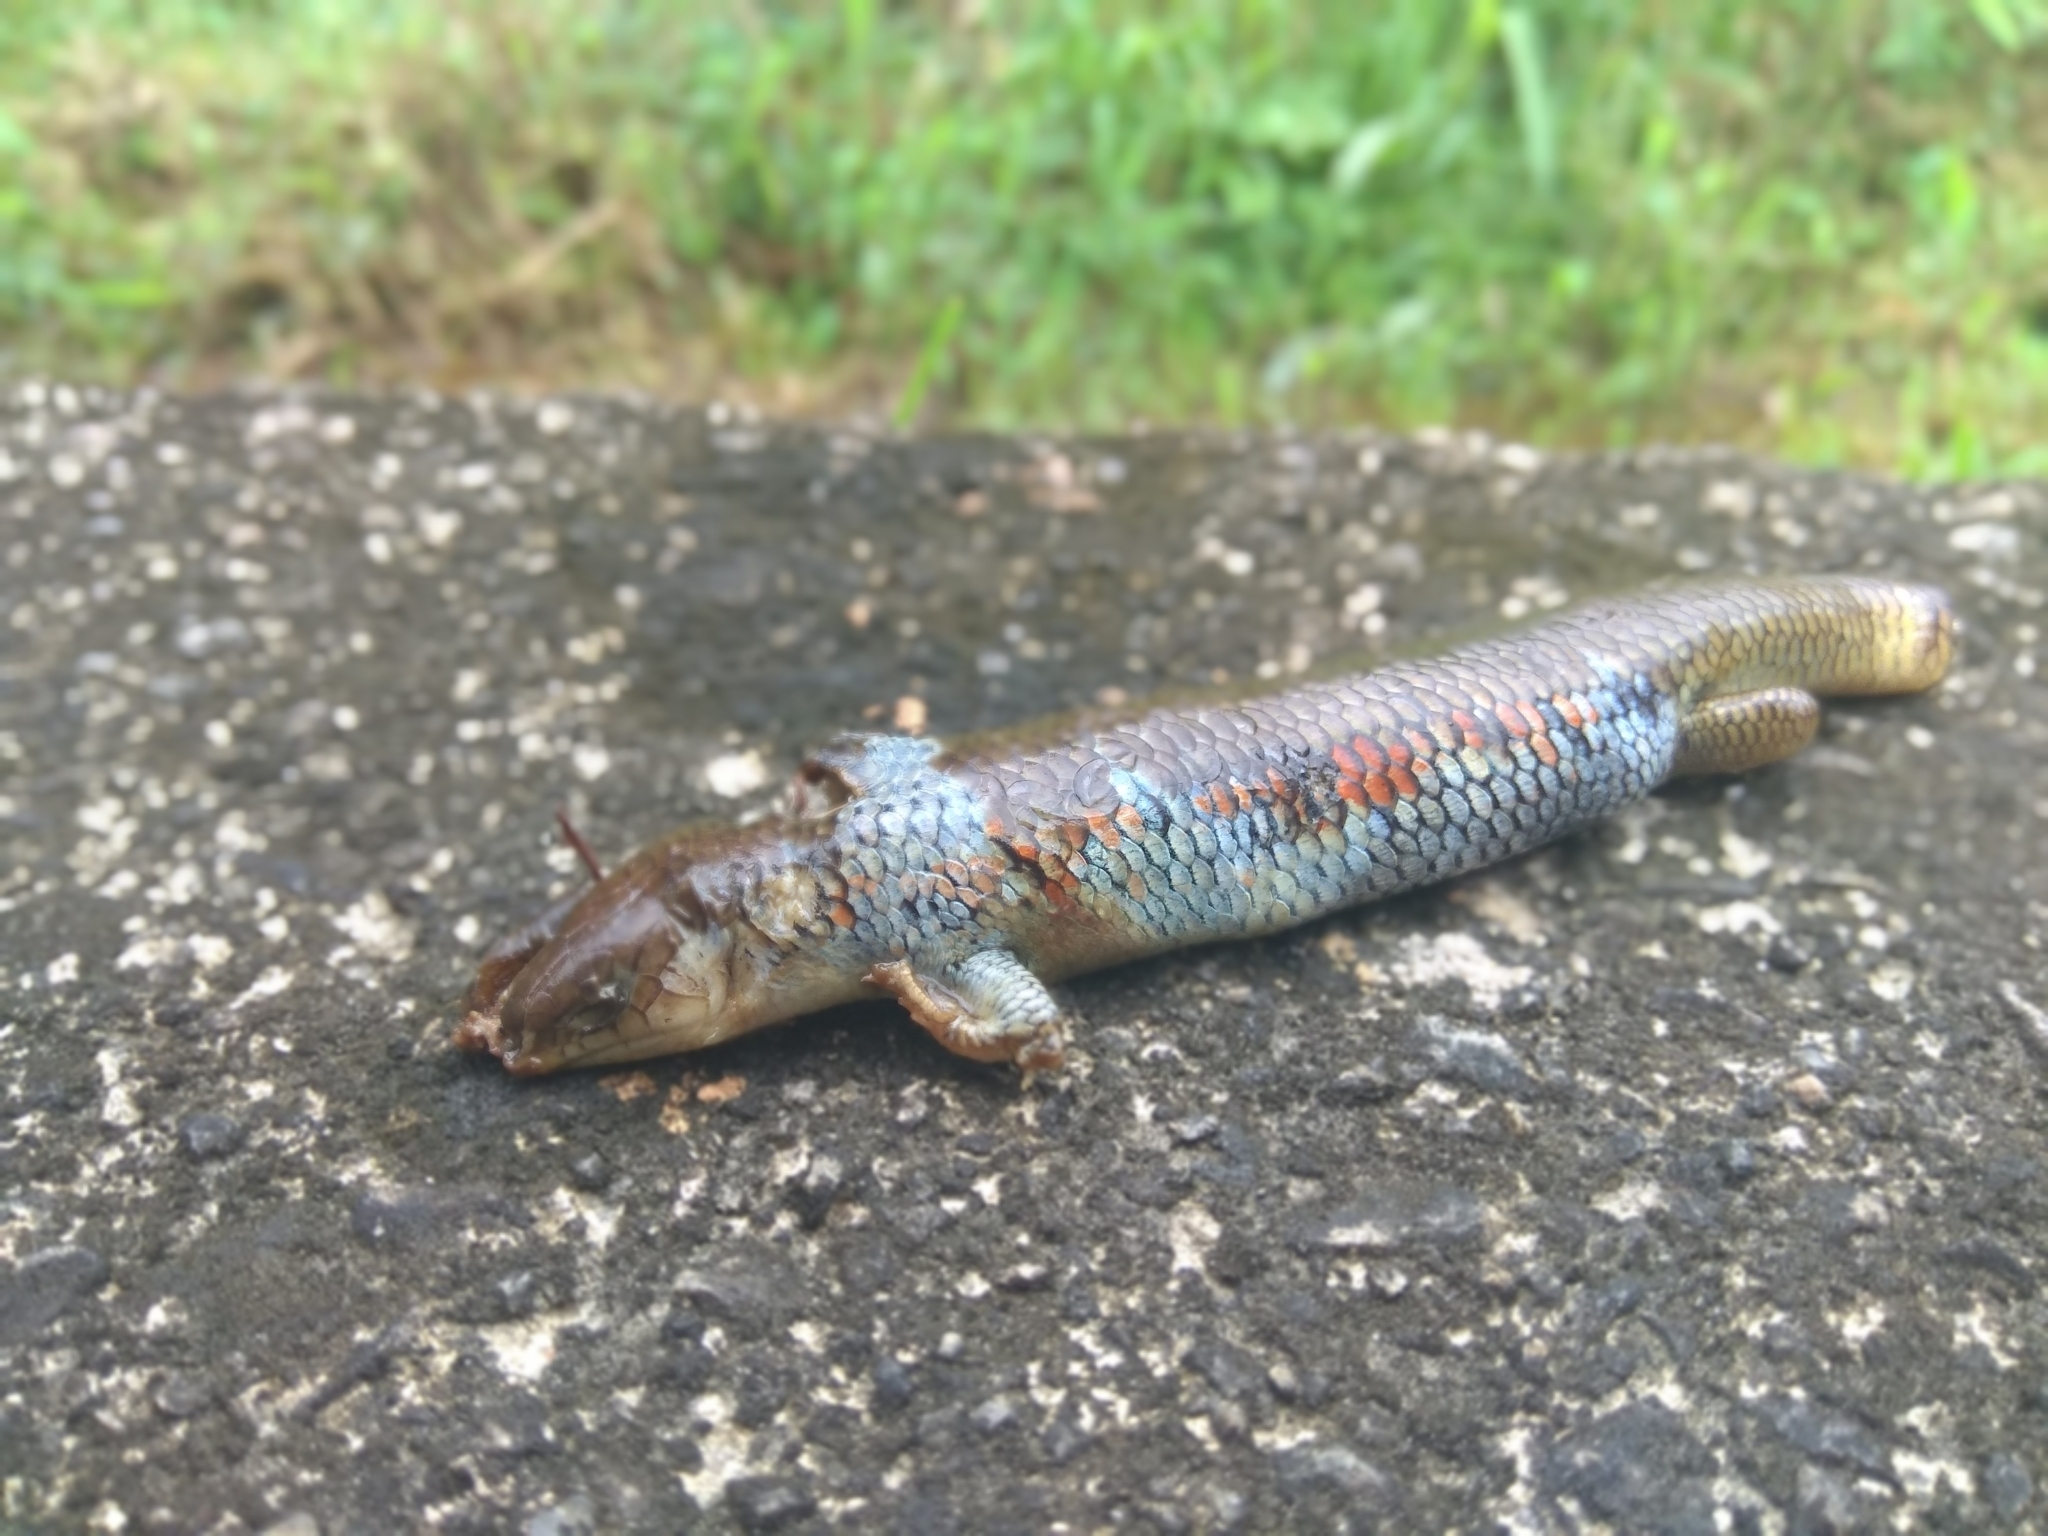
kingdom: Animalia
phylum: Chordata
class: Squamata
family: Scincidae
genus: Plestiodon
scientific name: Plestiodon chinensis
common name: Chinese blue-tailed skink
